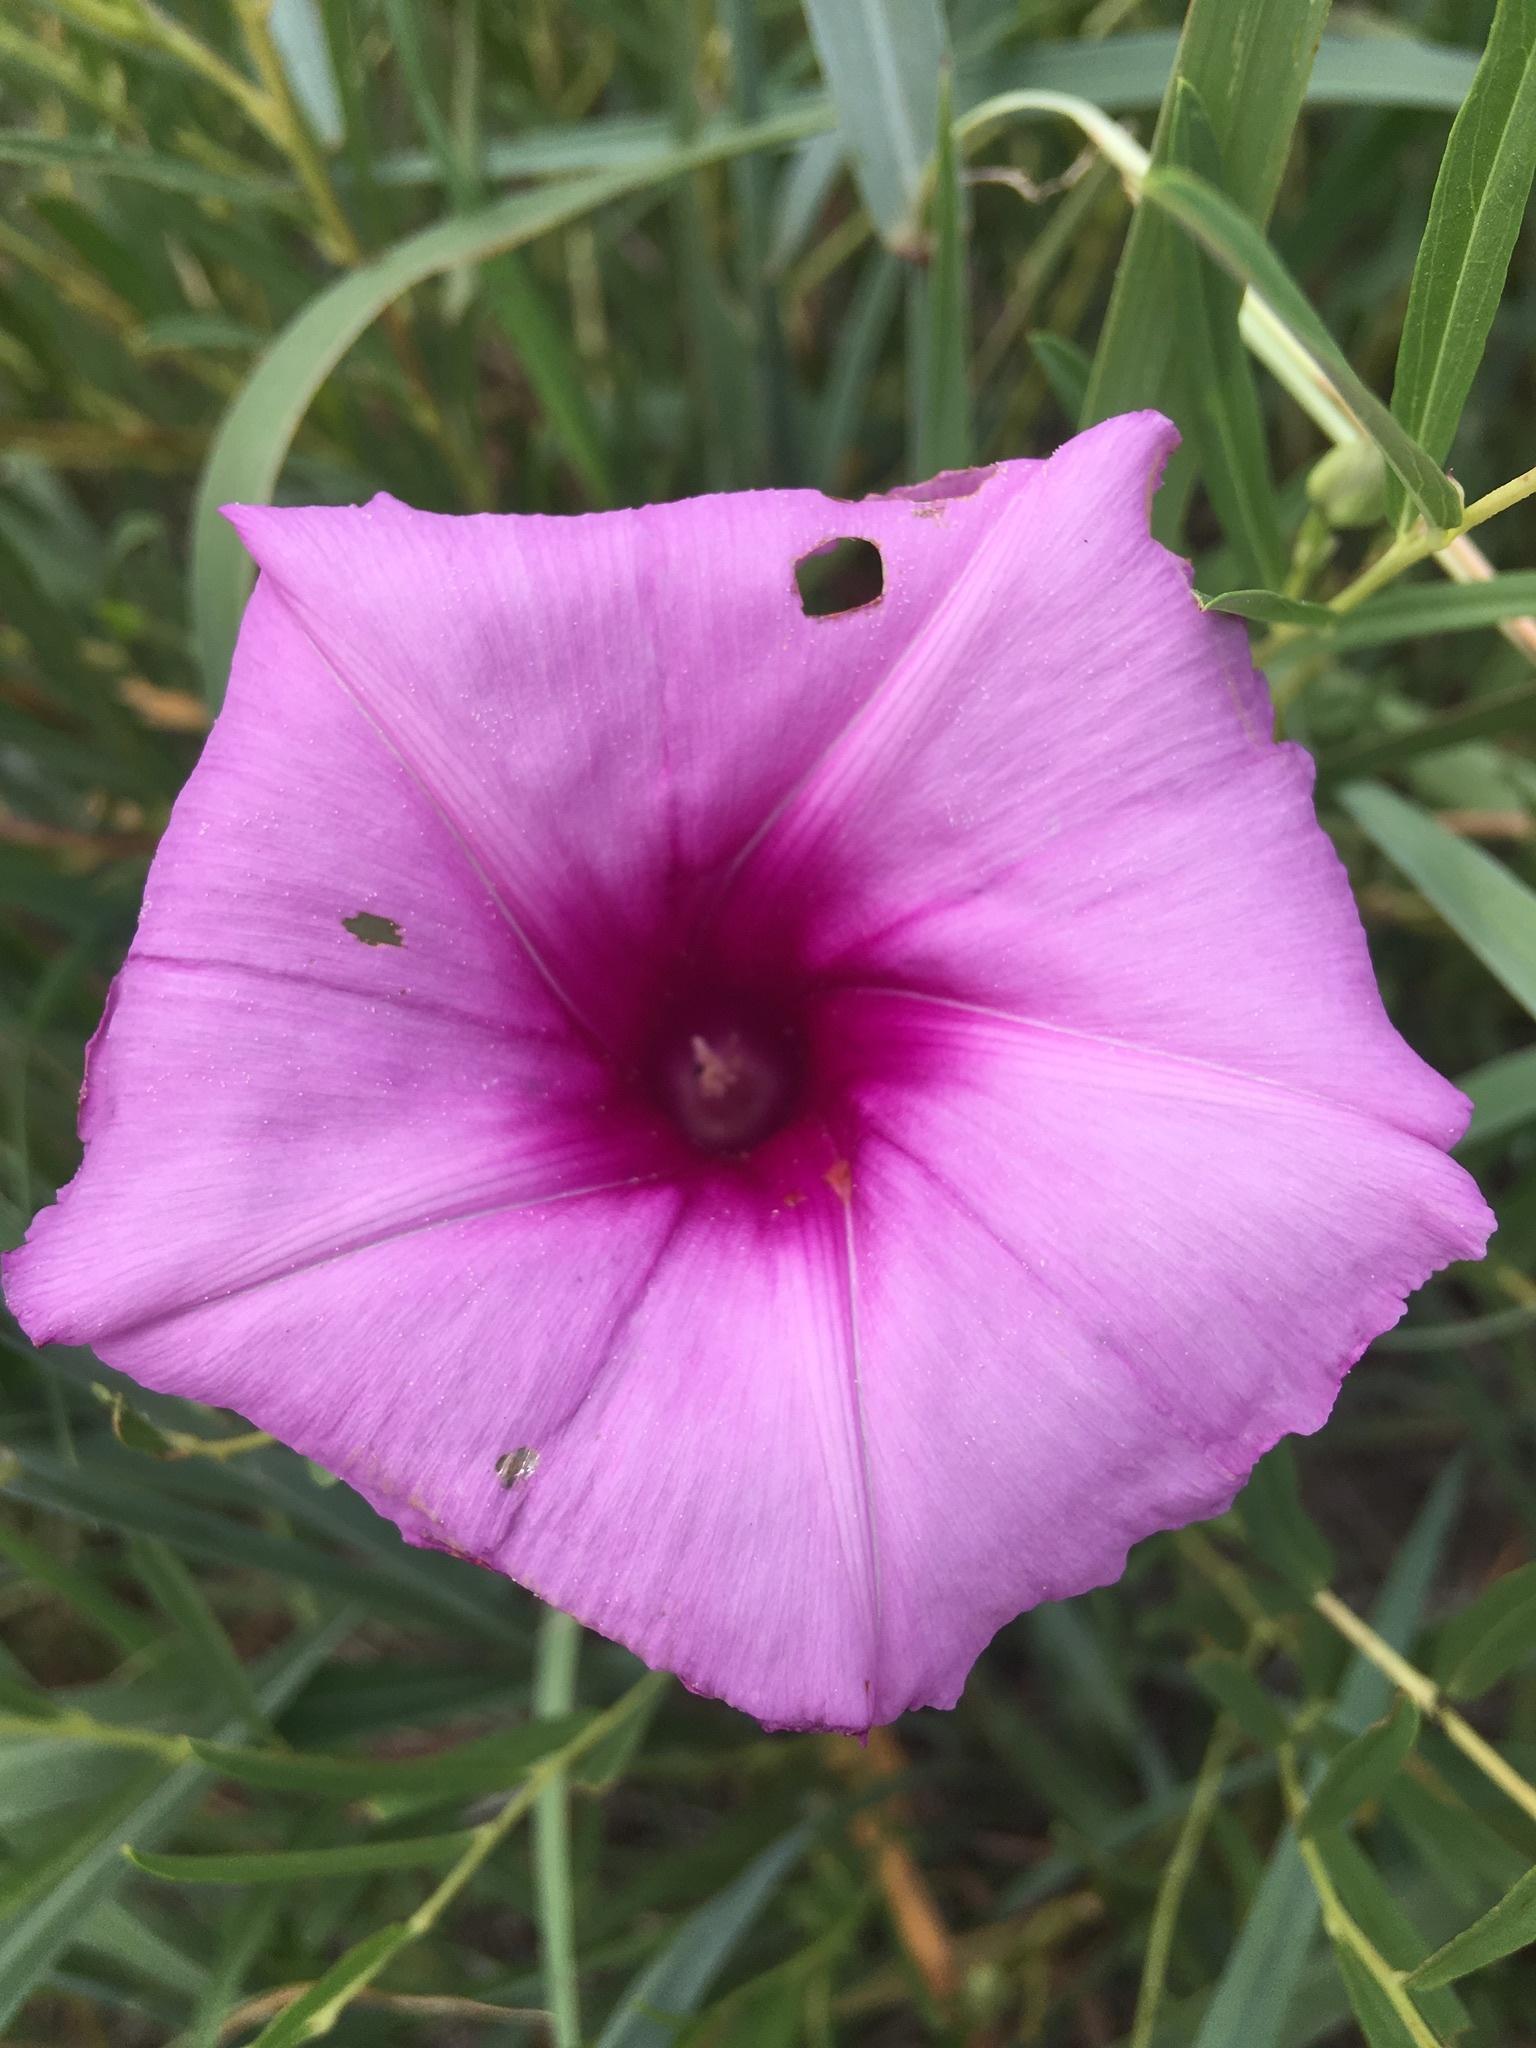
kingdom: Plantae
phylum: Tracheophyta
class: Magnoliopsida
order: Solanales
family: Convolvulaceae
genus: Ipomoea
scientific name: Ipomoea leptophylla
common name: Bush moonflower
